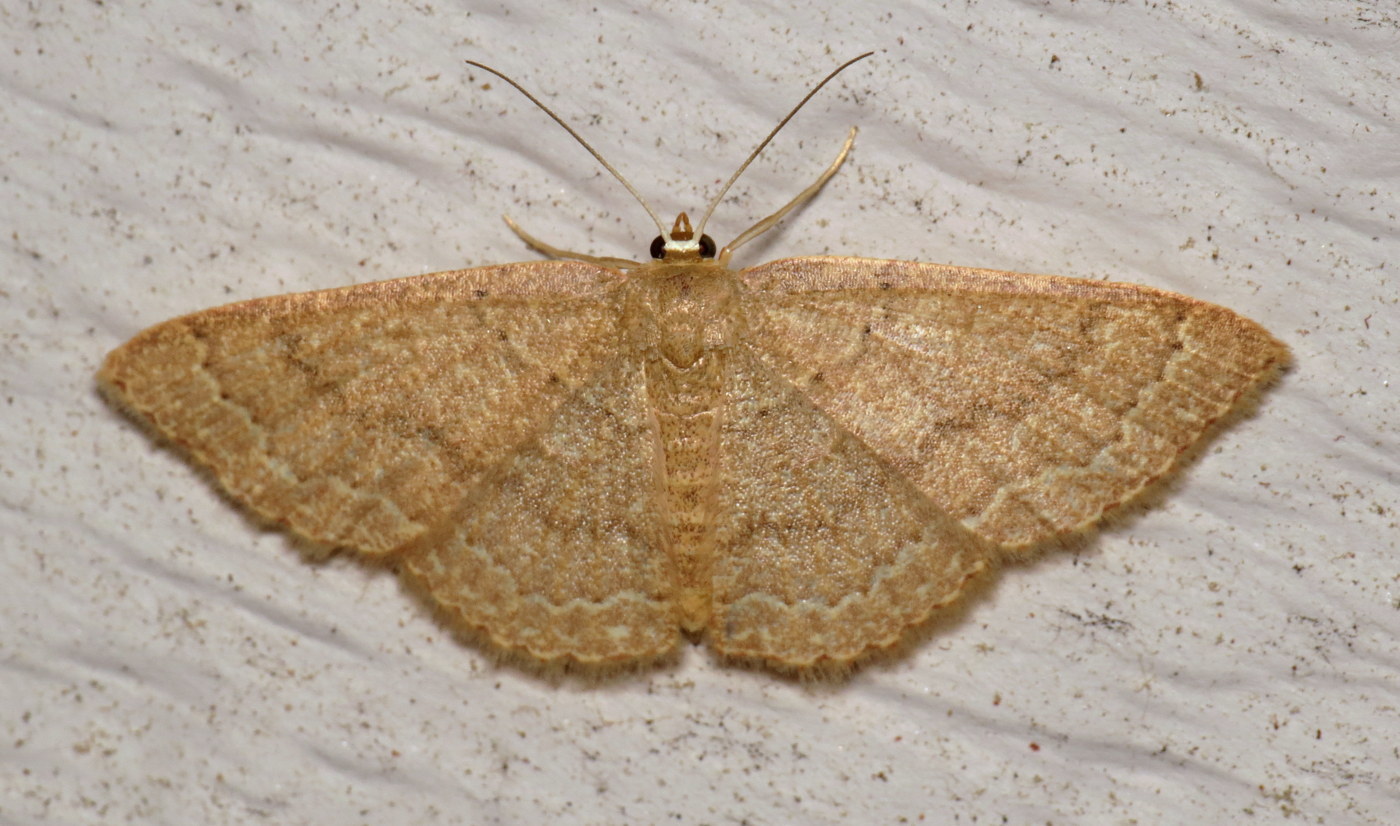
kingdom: Animalia
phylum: Arthropoda
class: Insecta
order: Lepidoptera
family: Geometridae
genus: Pleuroprucha
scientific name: Pleuroprucha insulsaria
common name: Common tan wave
